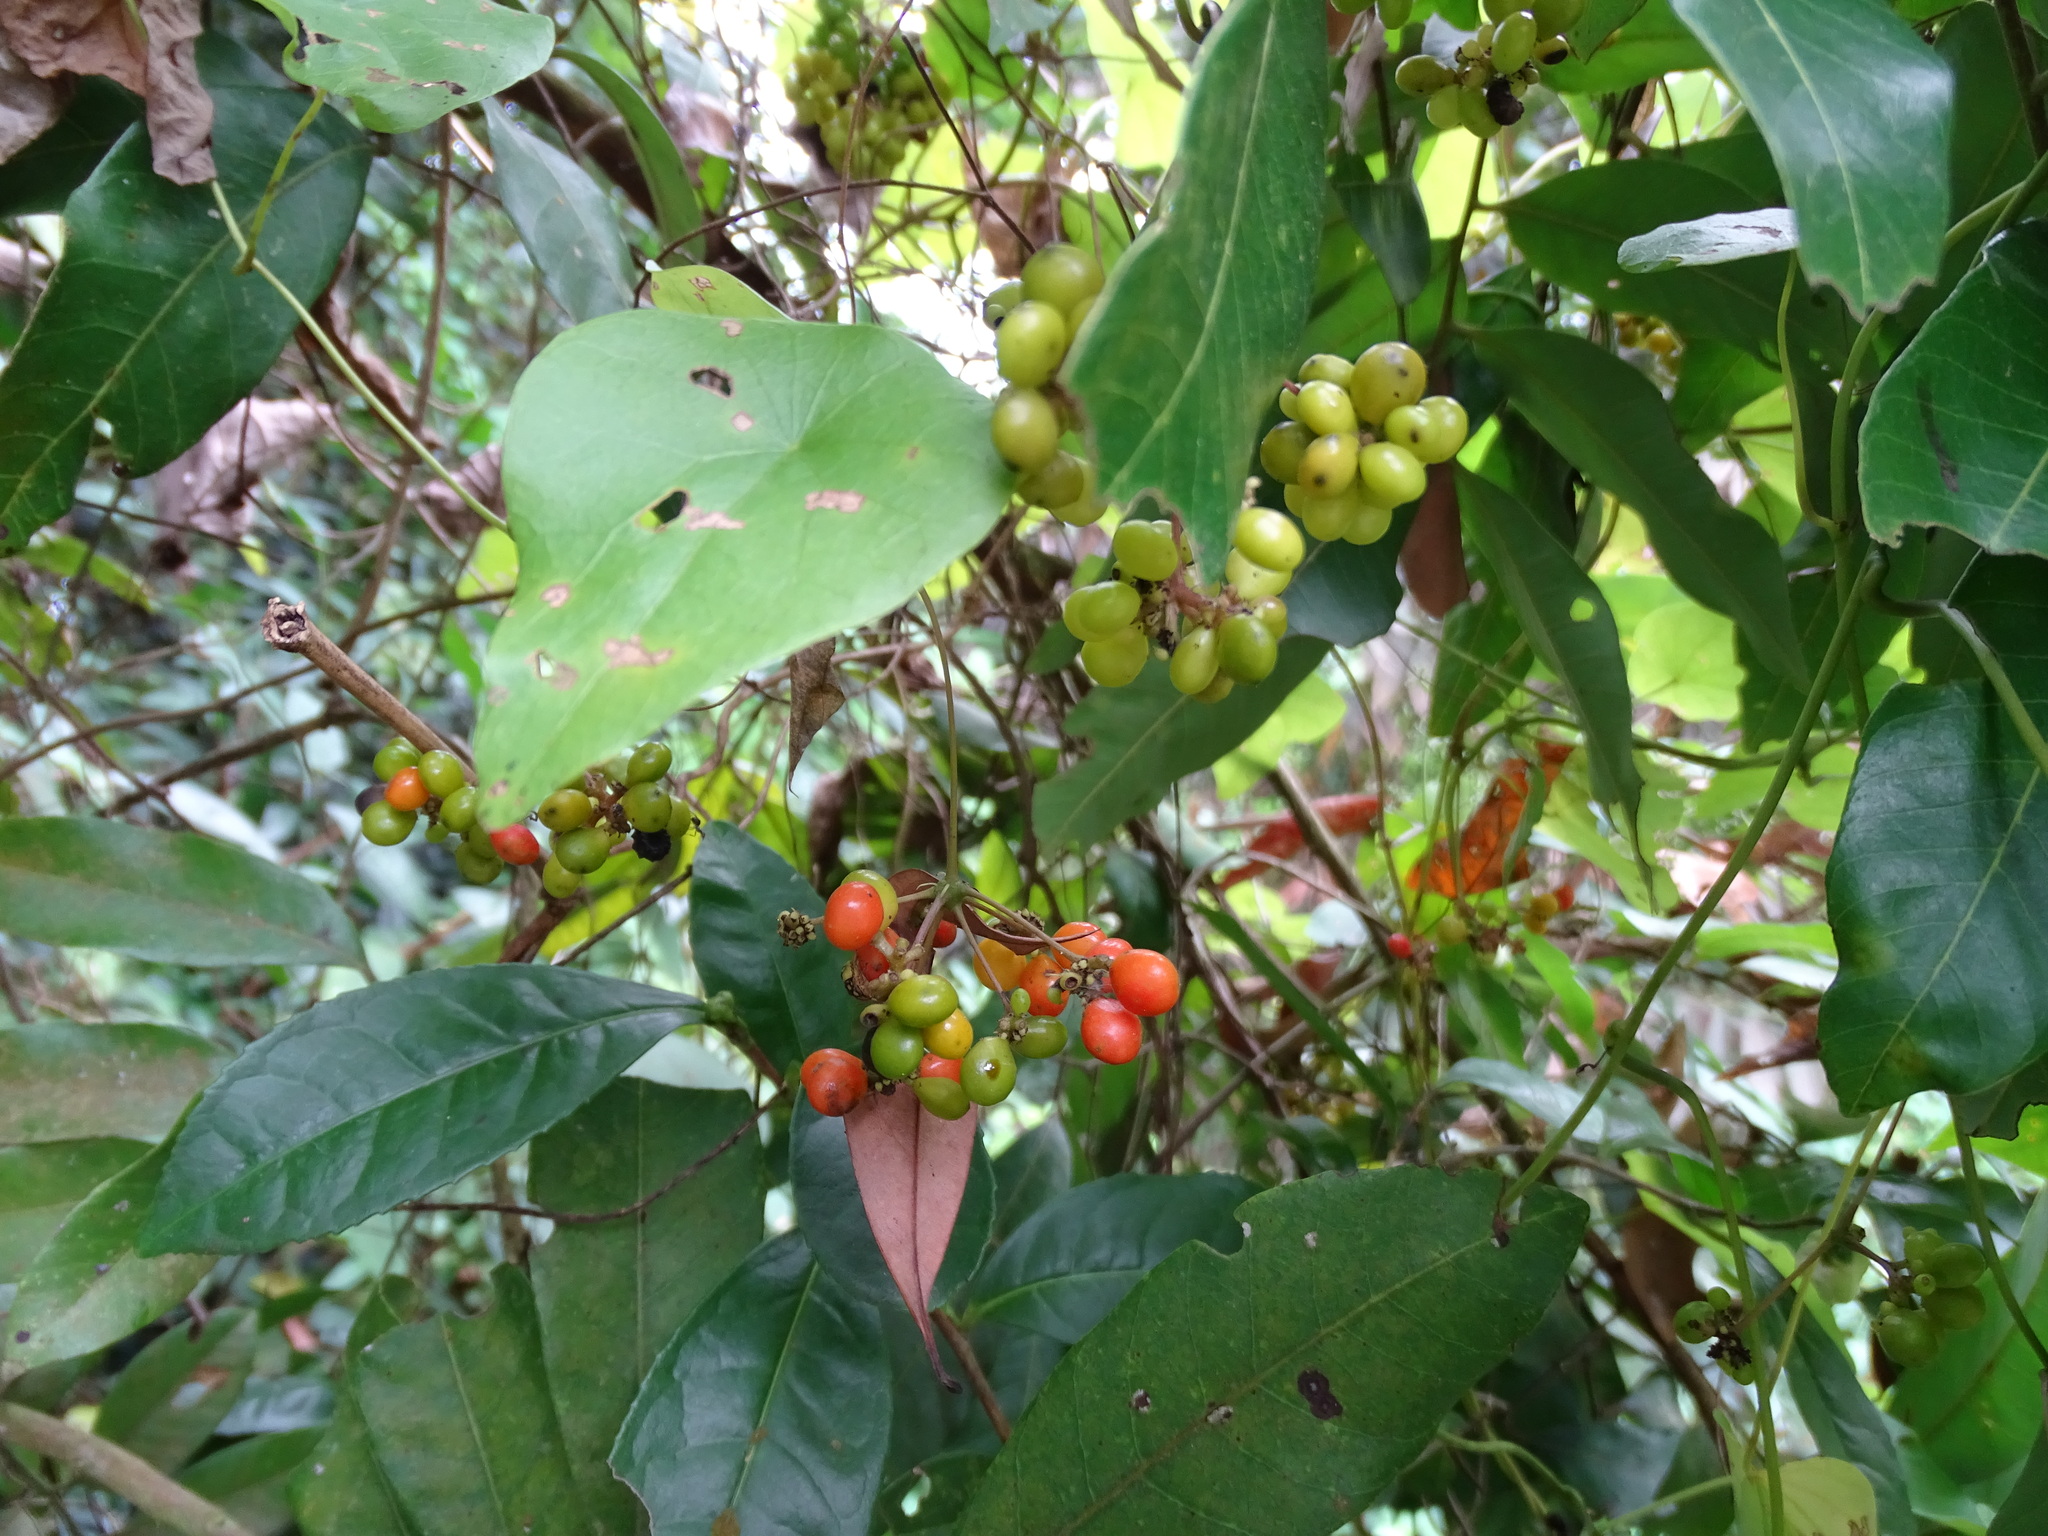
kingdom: Plantae
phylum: Tracheophyta
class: Magnoliopsida
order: Ranunculales
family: Menispermaceae
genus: Stephania
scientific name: Stephania japonica
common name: Snake vine
